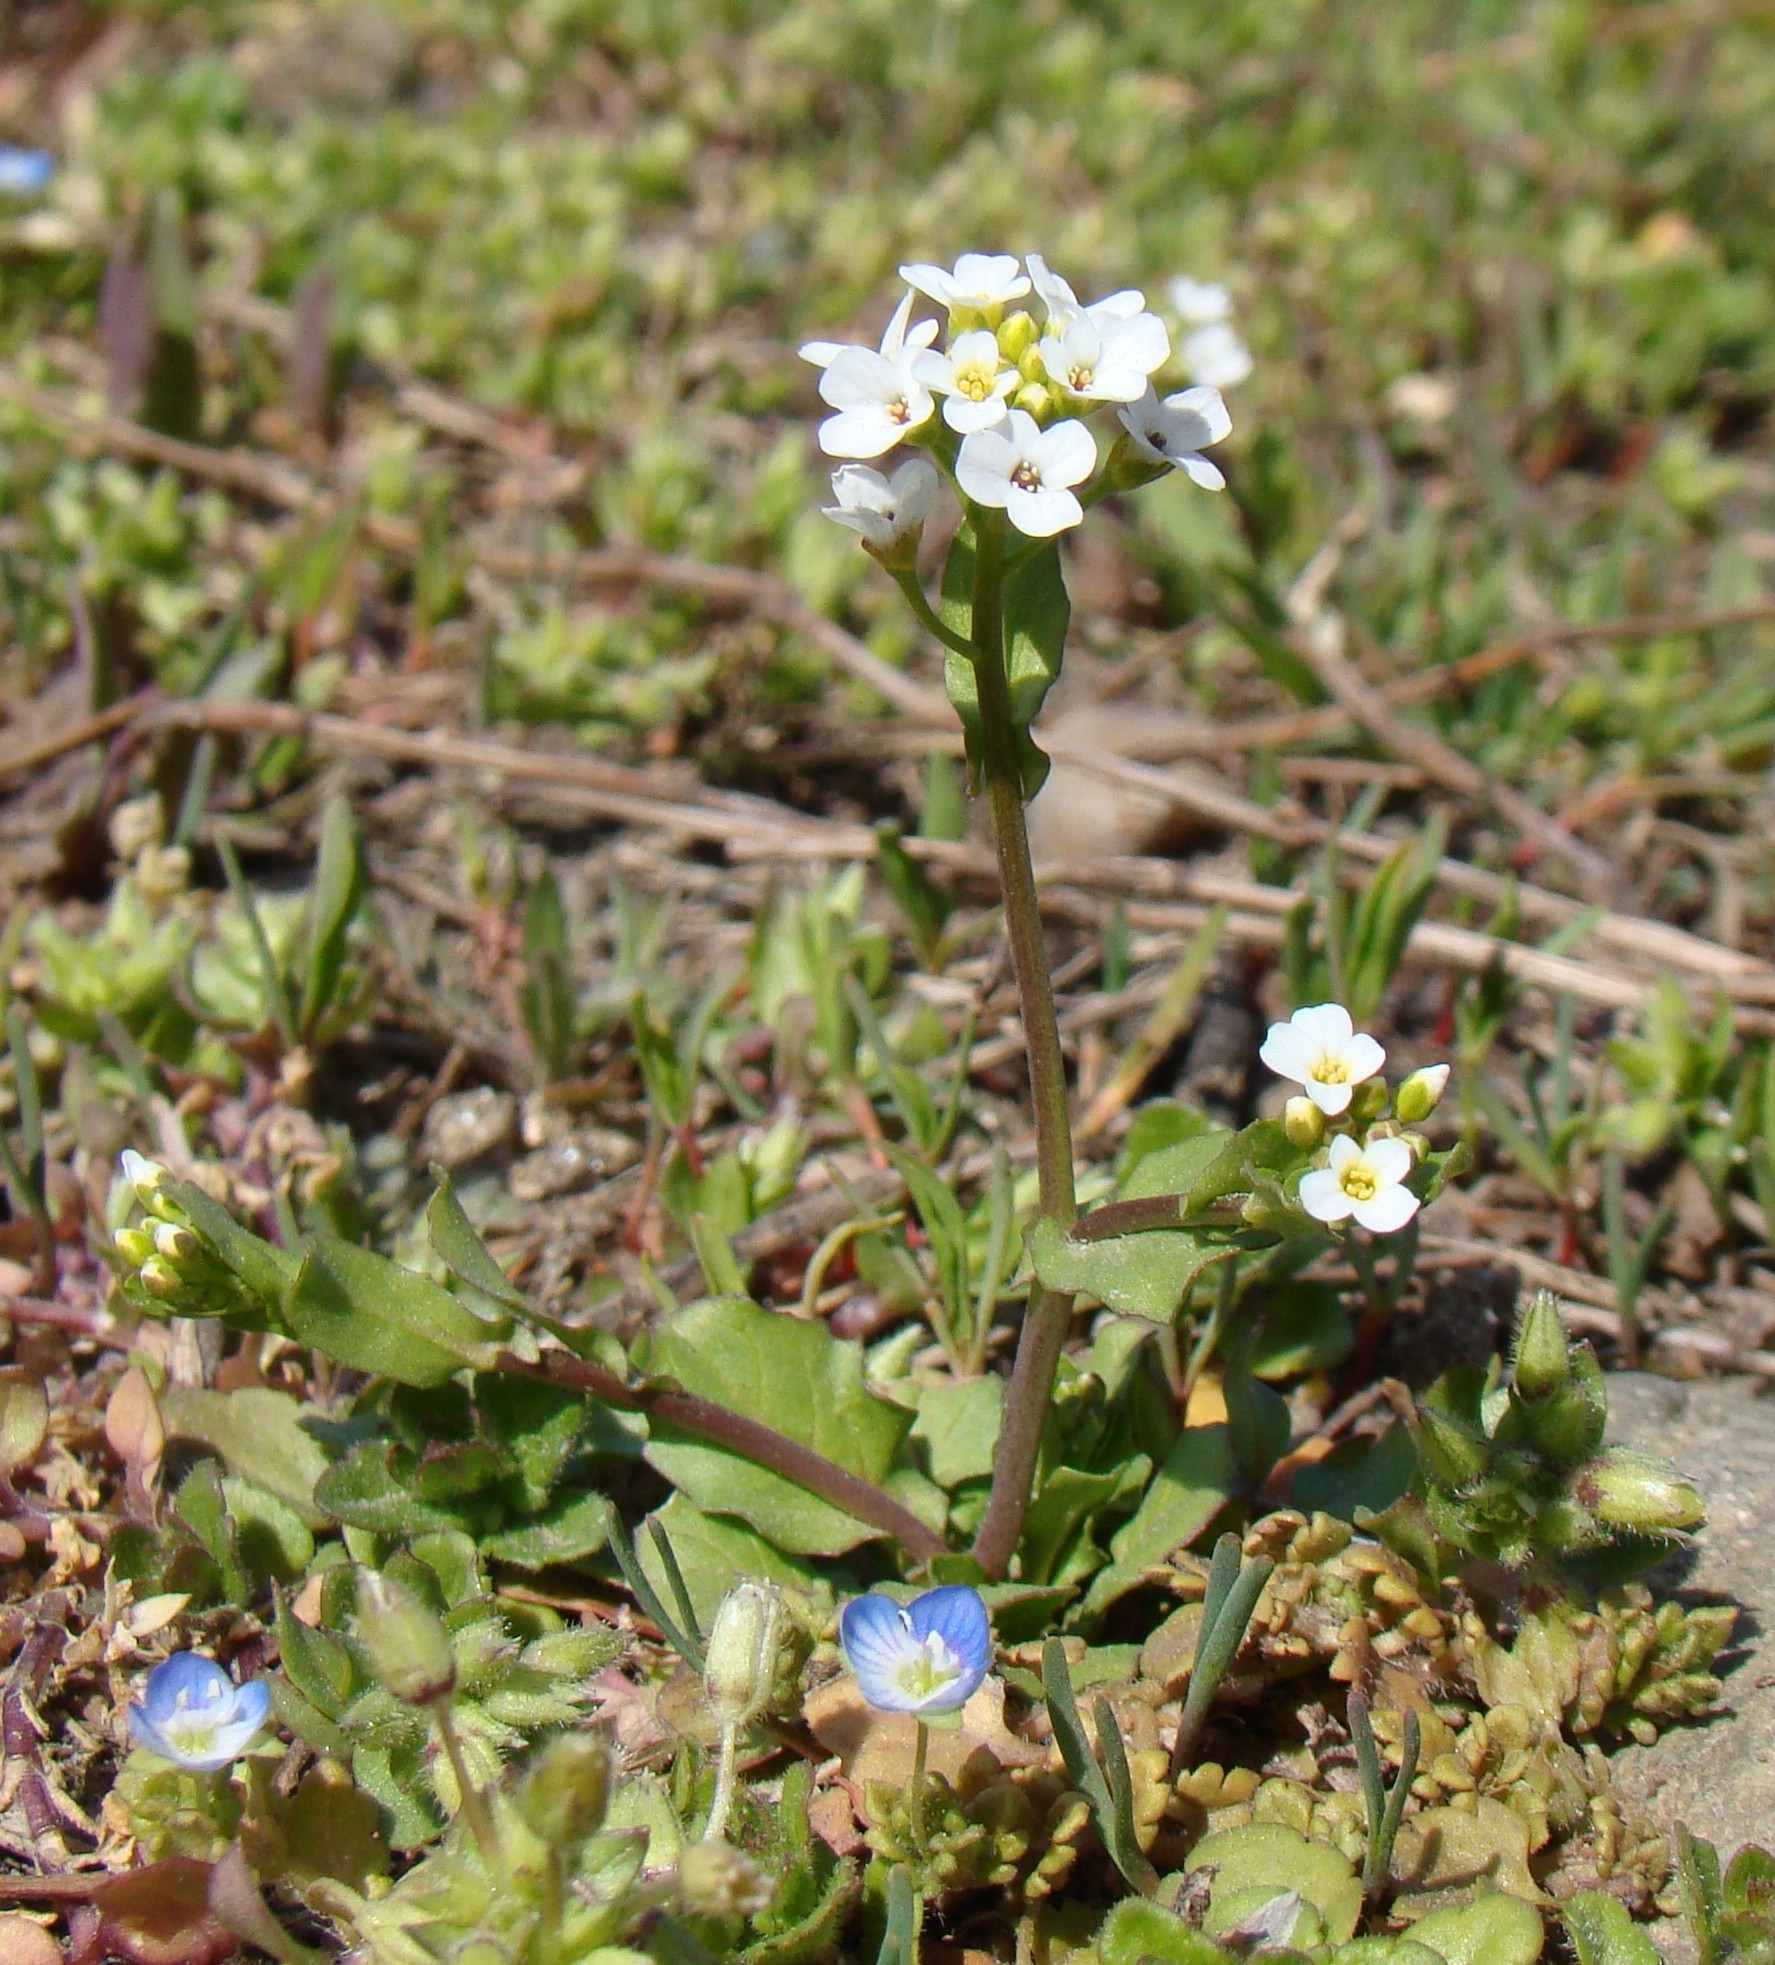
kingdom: Plantae
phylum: Tracheophyta
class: Magnoliopsida
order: Brassicales
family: Brassicaceae
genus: Calepina
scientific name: Calepina irregularis
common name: White ballmustard
